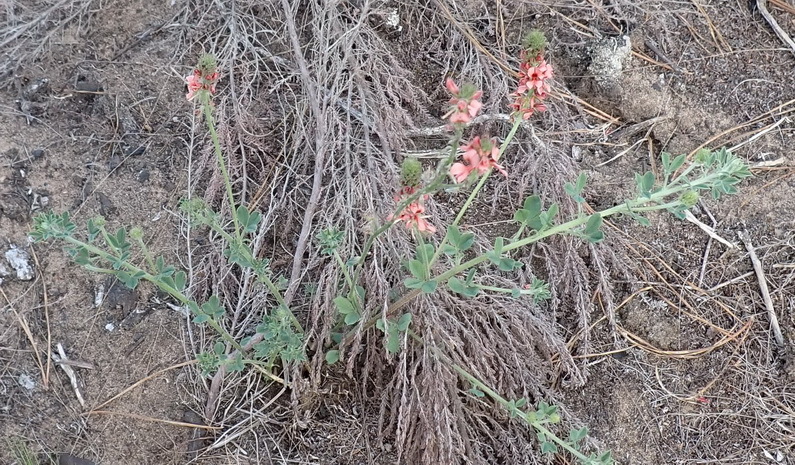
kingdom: Plantae
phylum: Tracheophyta
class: Magnoliopsida
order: Fabales
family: Fabaceae
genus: Indigofera
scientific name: Indigofera heterophylla
